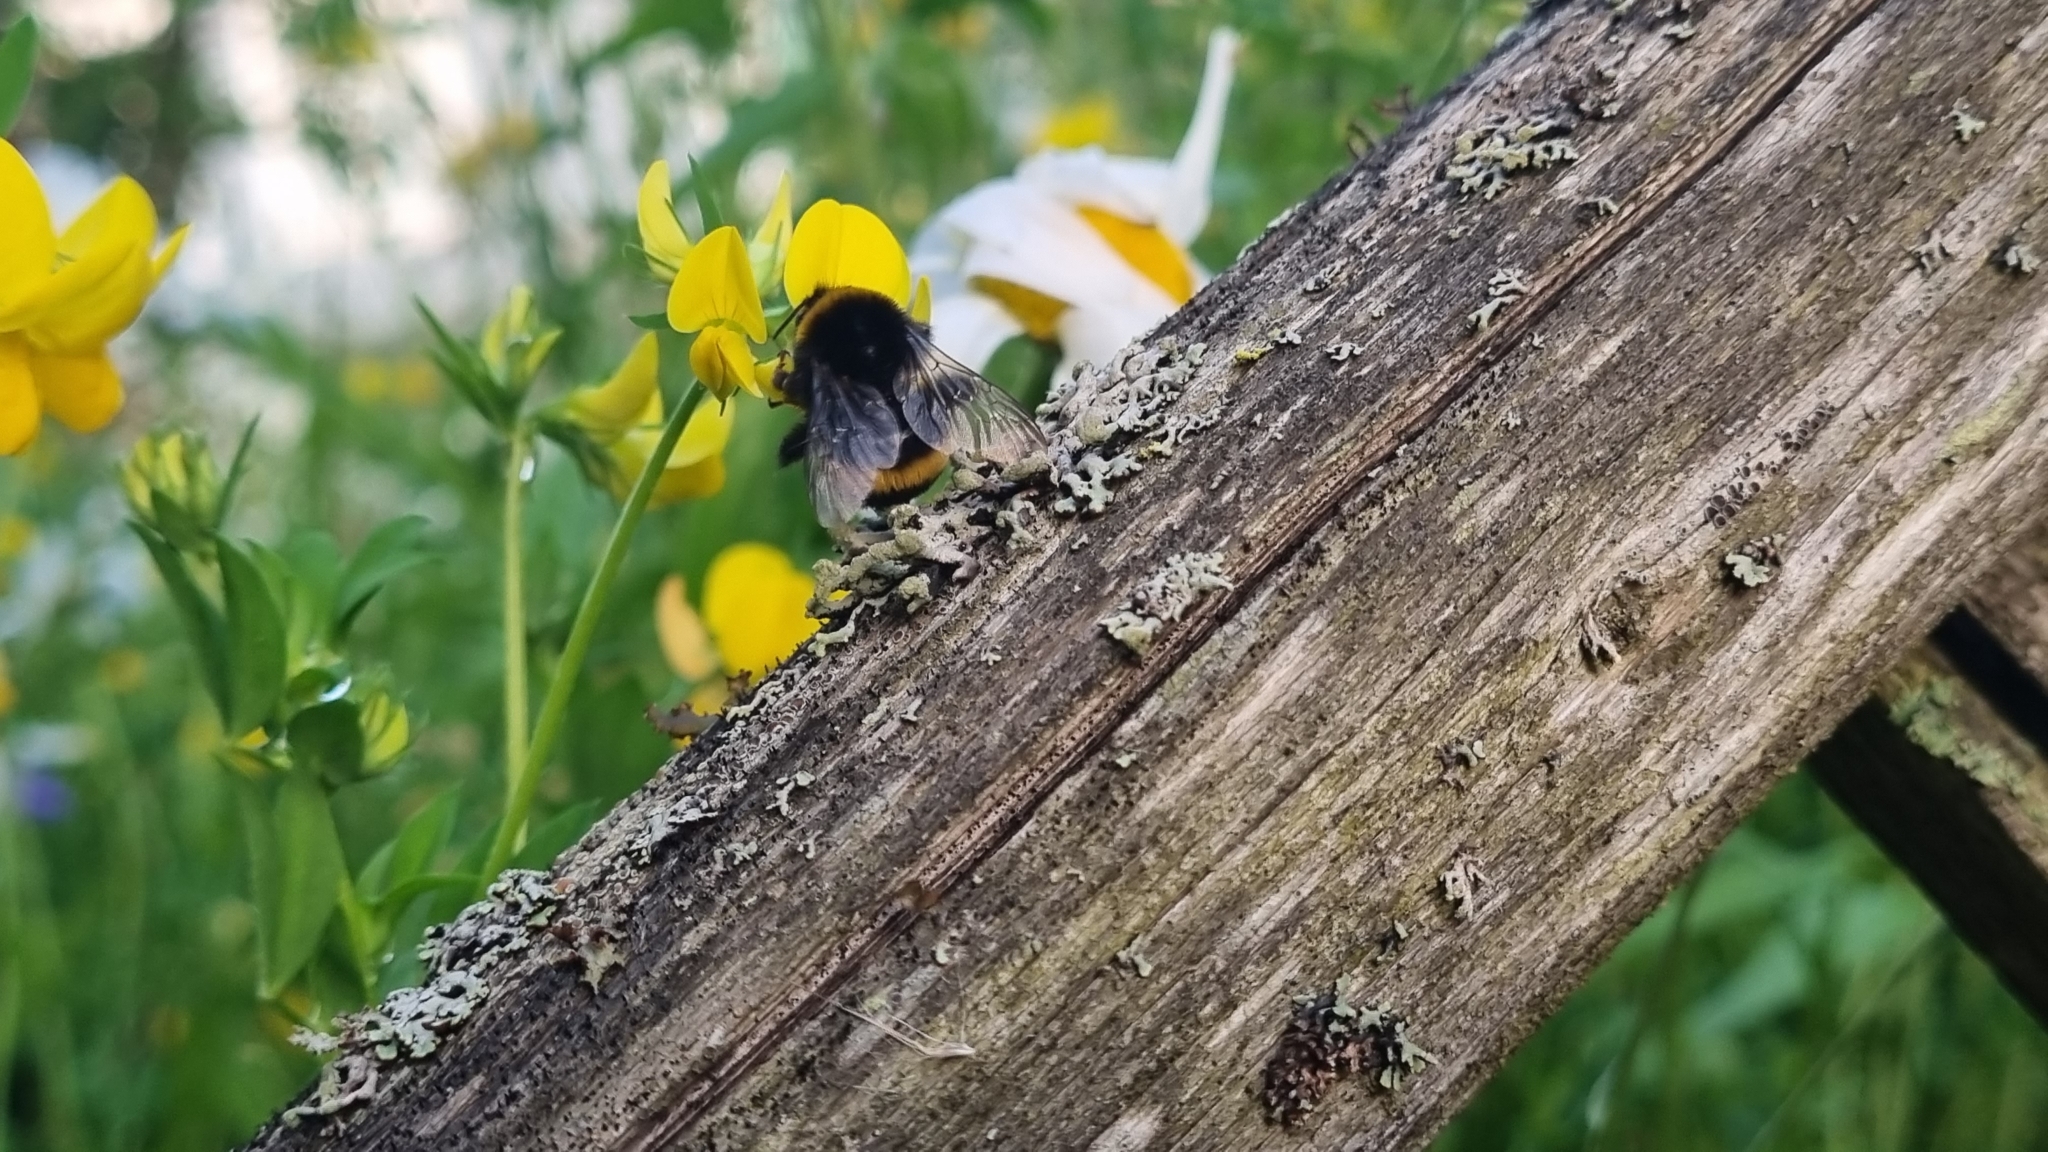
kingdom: Animalia
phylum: Arthropoda
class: Insecta
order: Hymenoptera
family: Apidae
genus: Bombus
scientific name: Bombus terrestris
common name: Buff-tailed bumblebee
